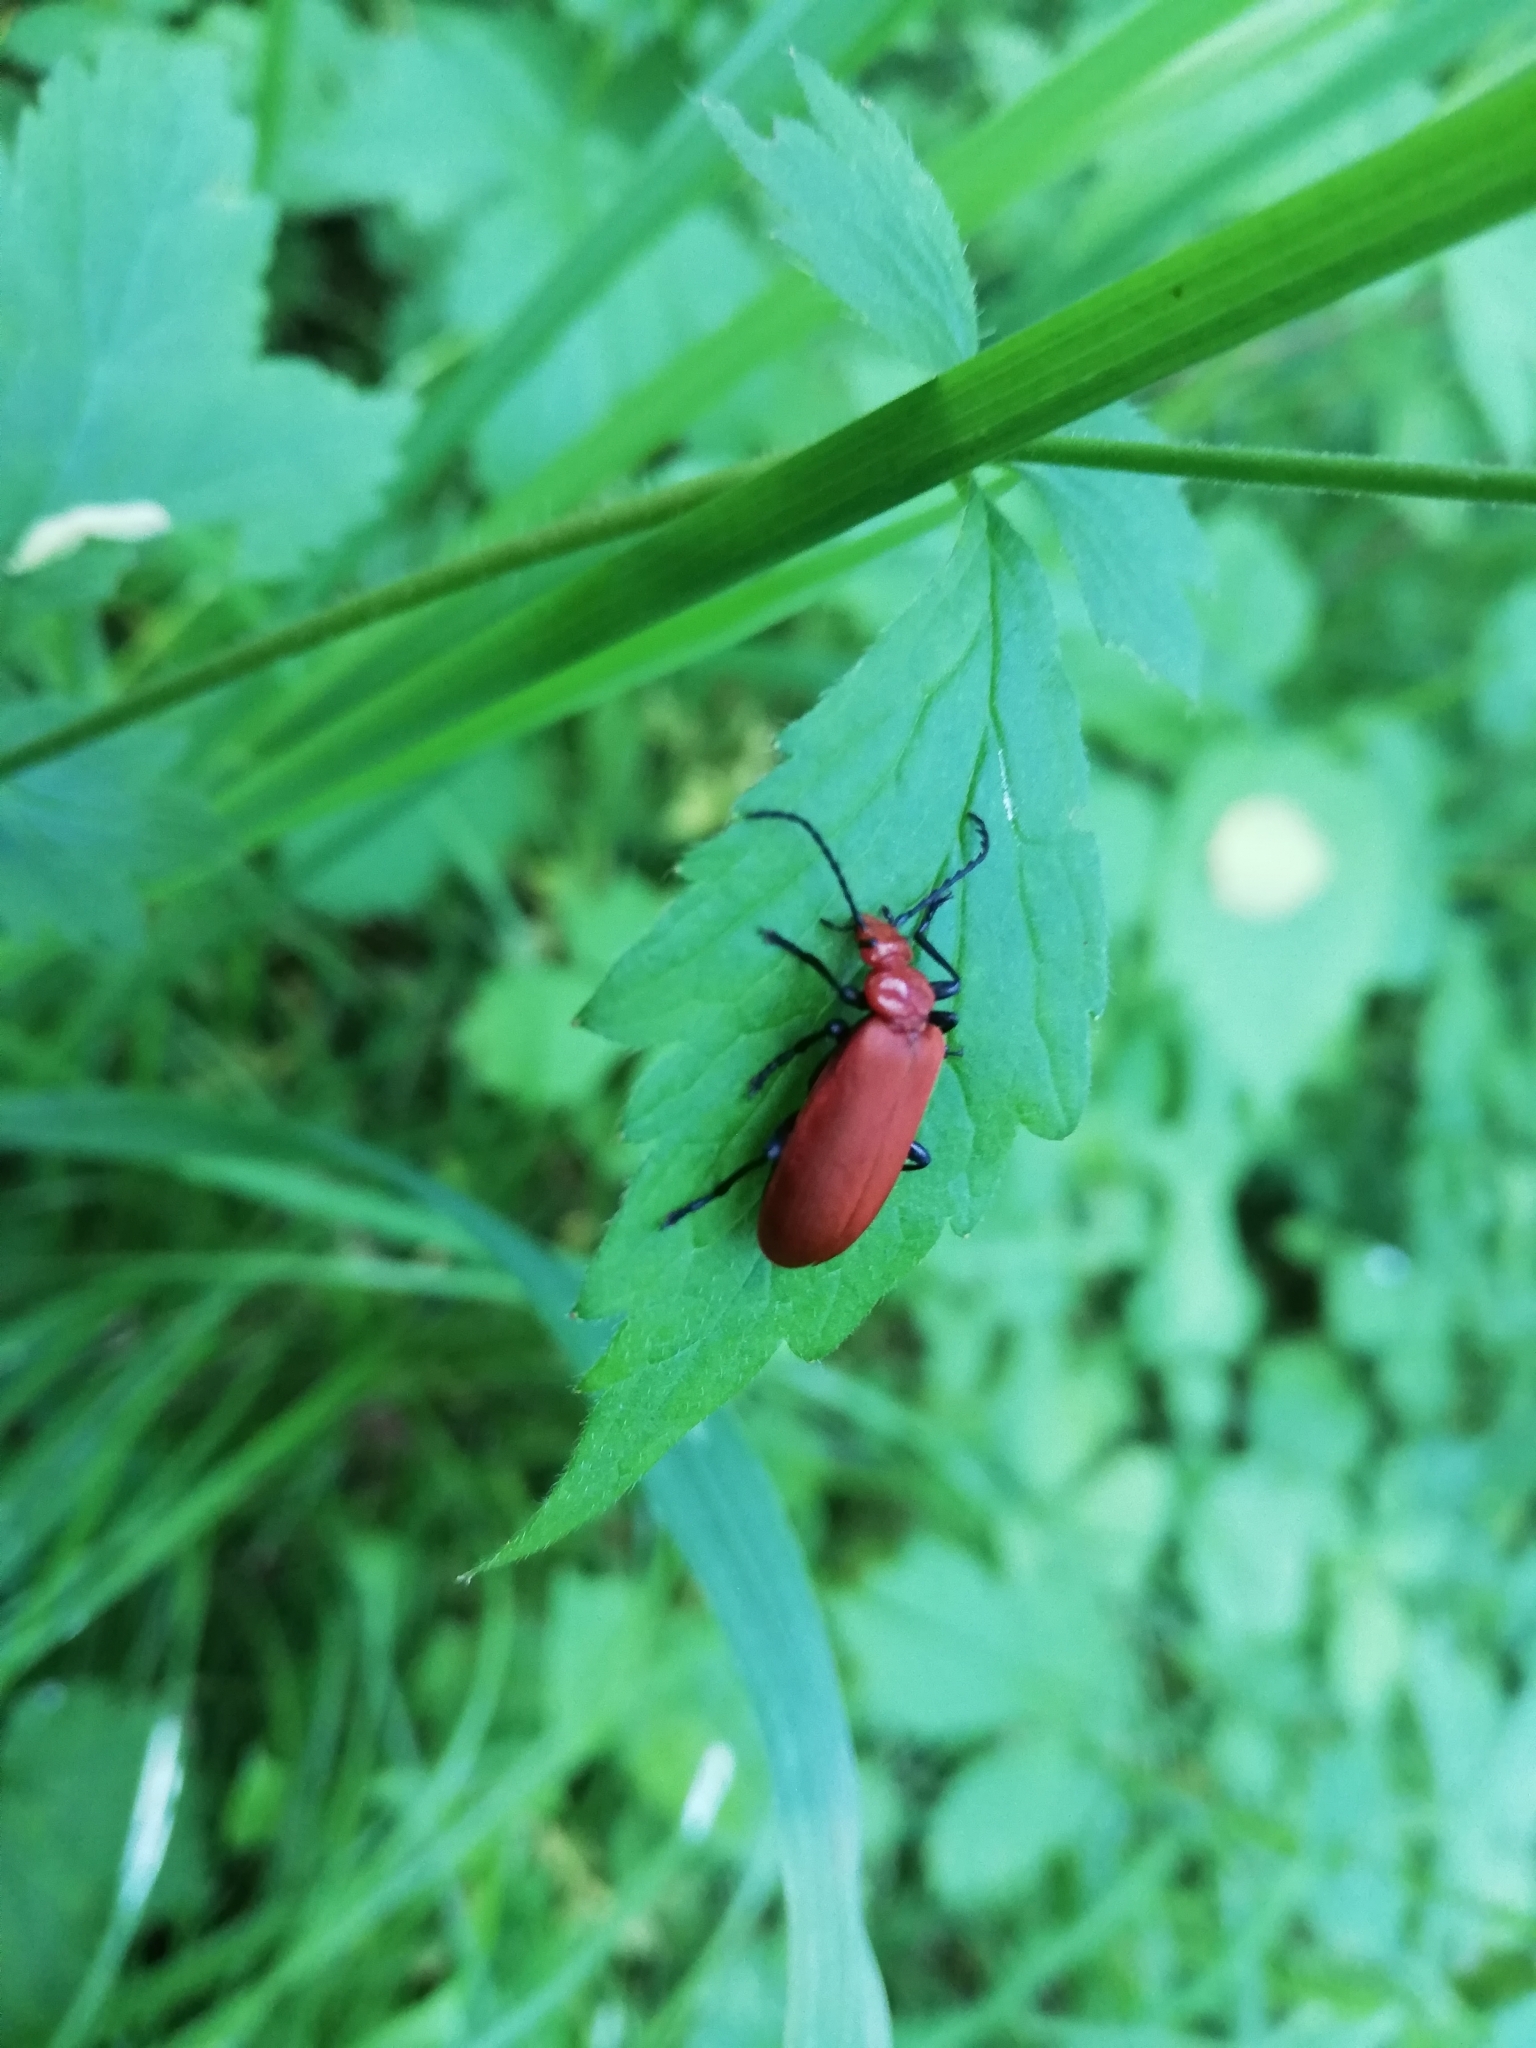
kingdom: Animalia
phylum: Arthropoda
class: Insecta
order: Coleoptera
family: Pyrochroidae
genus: Pyrochroa
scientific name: Pyrochroa serraticornis
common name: Red-headed cardinal beetle
